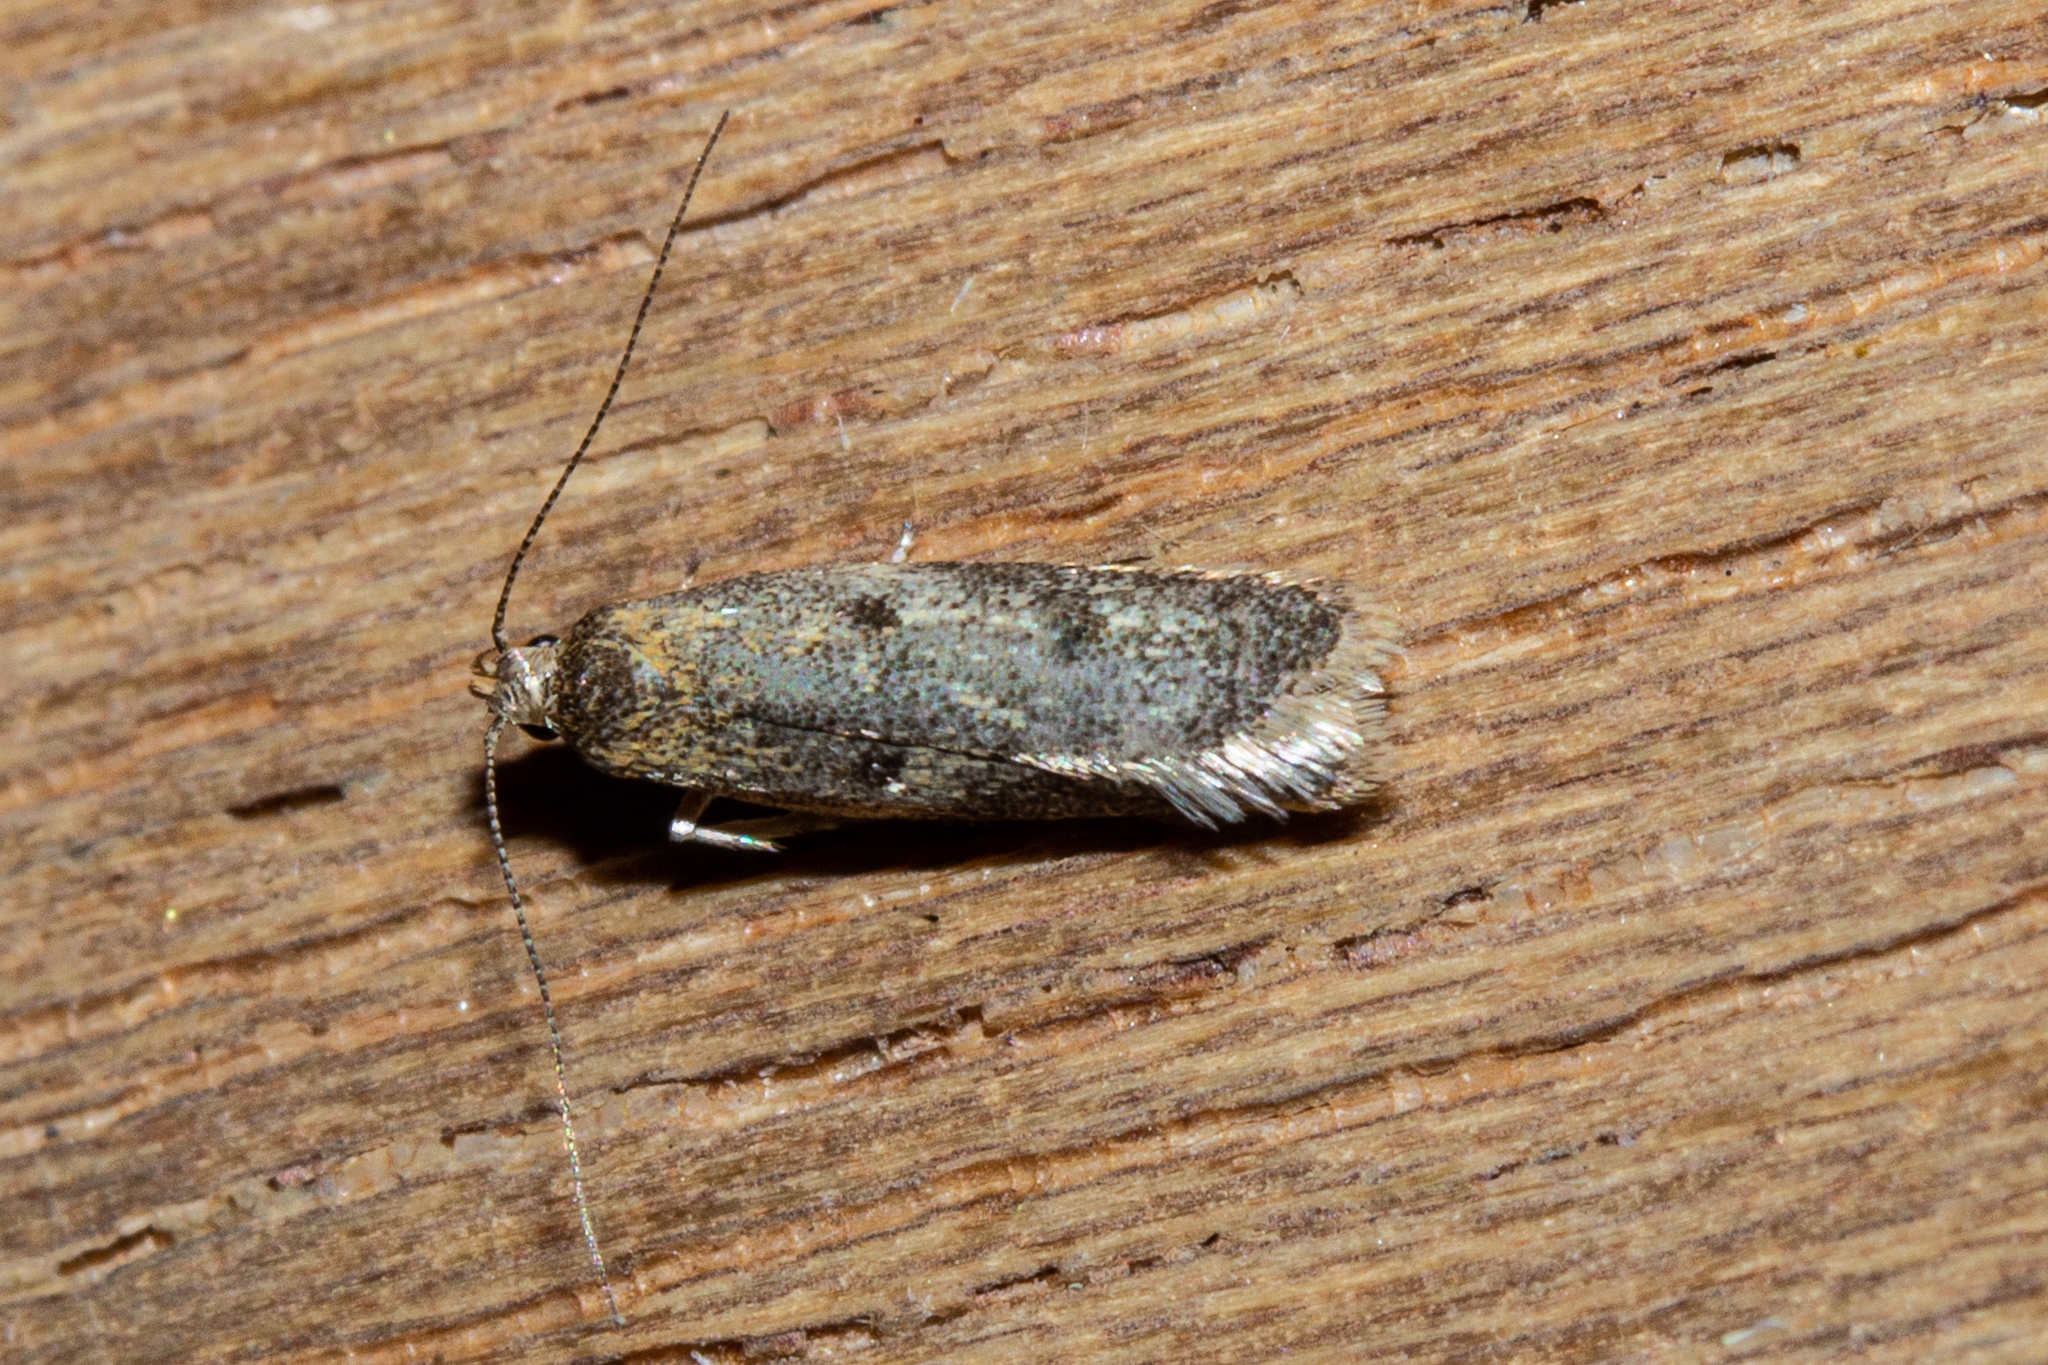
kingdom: Animalia
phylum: Arthropoda
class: Insecta
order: Lepidoptera
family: Oecophoridae
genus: Gymnobathra
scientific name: Gymnobathra tholodella
